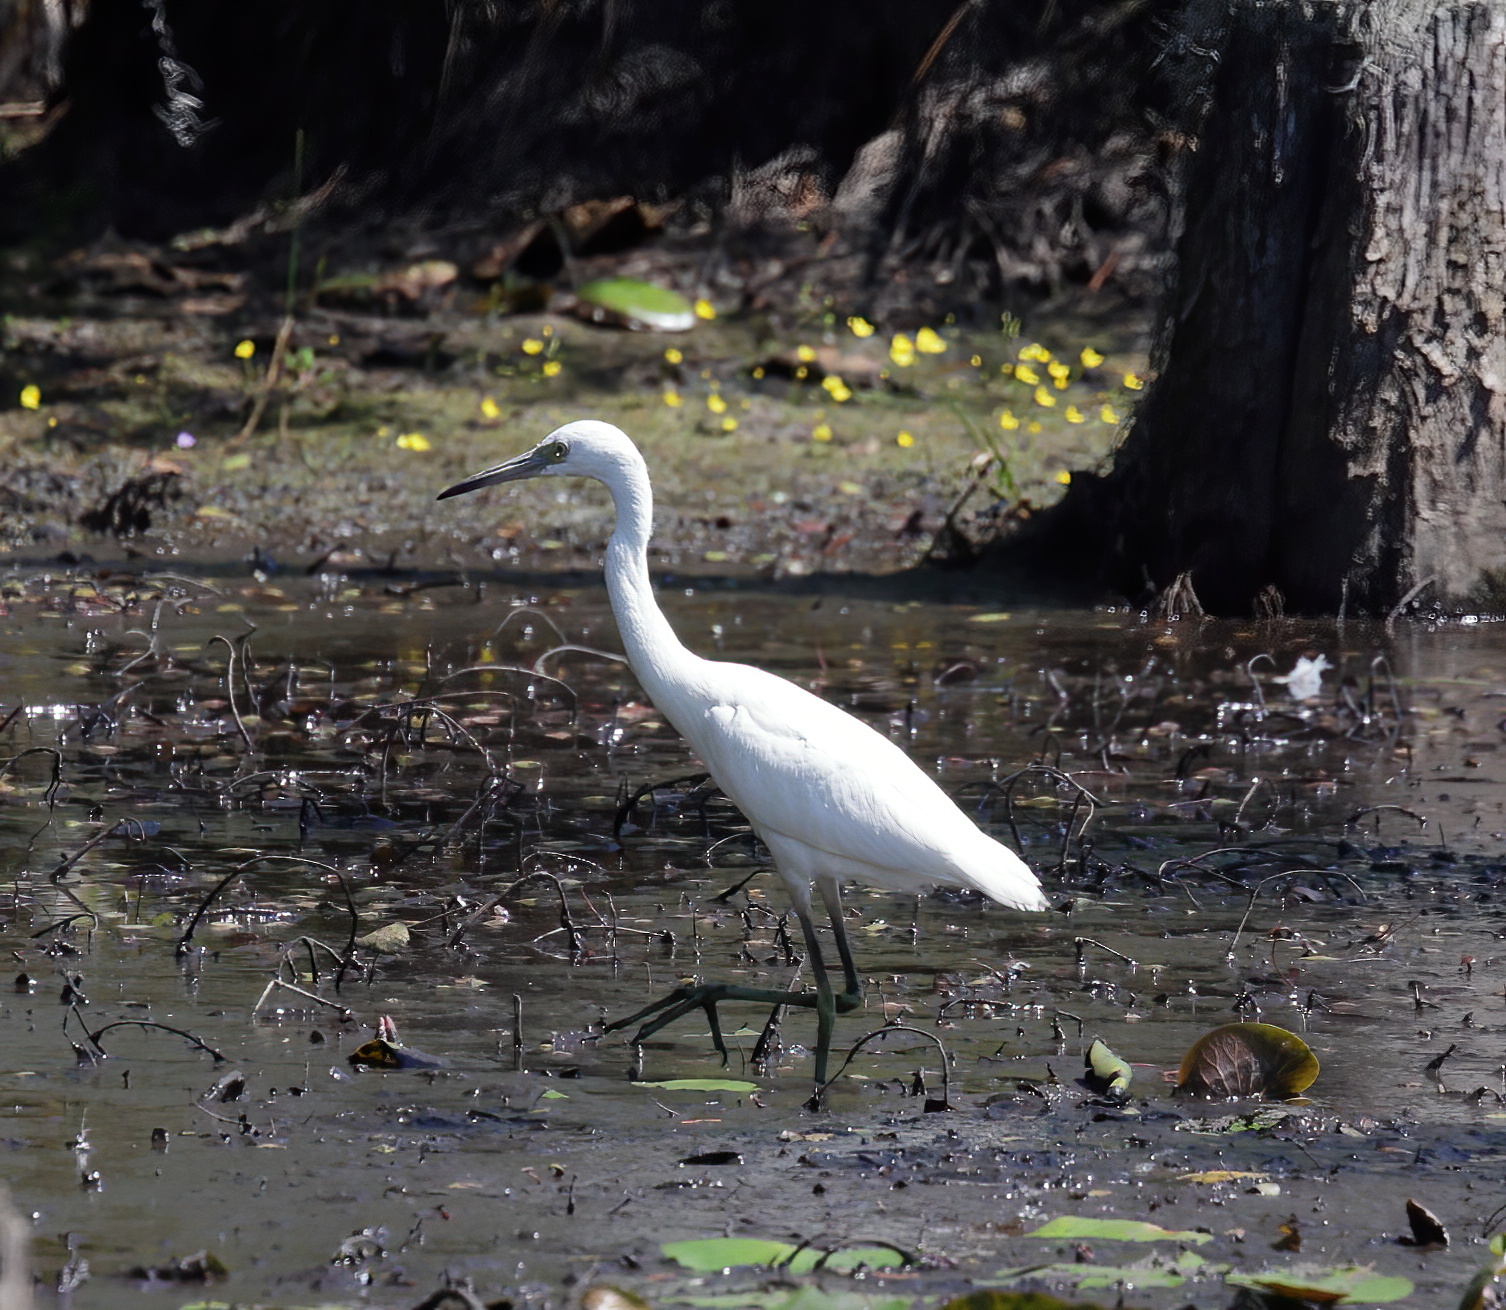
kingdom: Animalia
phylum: Chordata
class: Aves
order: Pelecaniformes
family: Ardeidae
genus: Egretta
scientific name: Egretta caerulea
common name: Little blue heron
